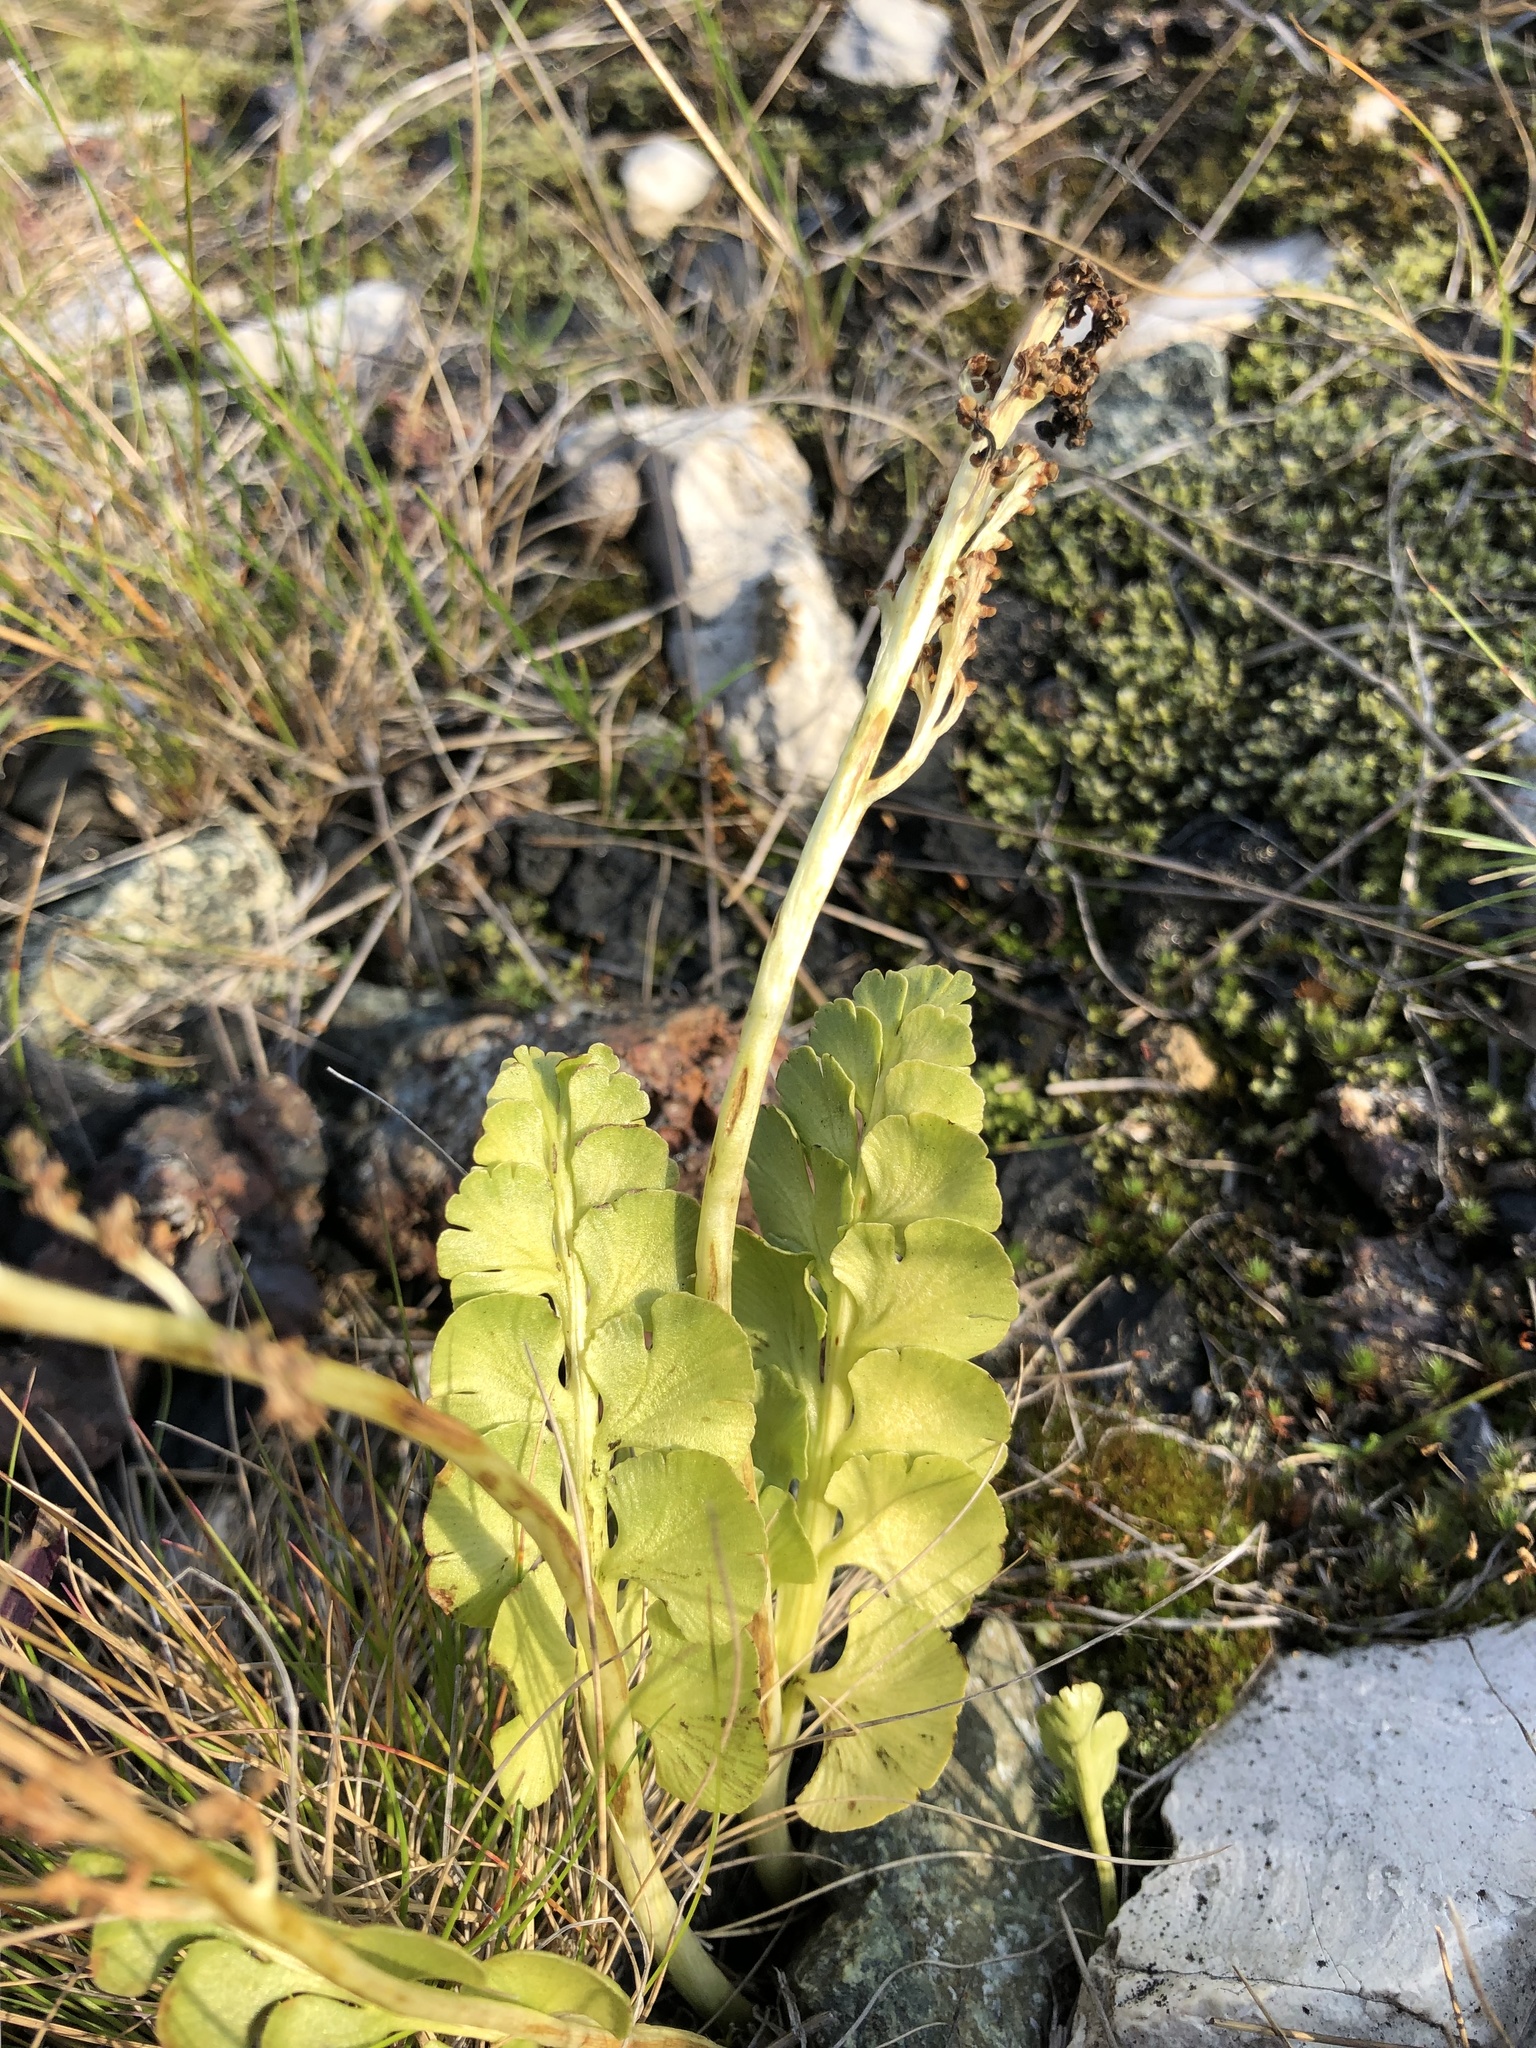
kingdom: Plantae
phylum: Tracheophyta
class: Polypodiopsida
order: Ophioglossales
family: Ophioglossaceae
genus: Botrychium
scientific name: Botrychium lunaria
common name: Moonwort
